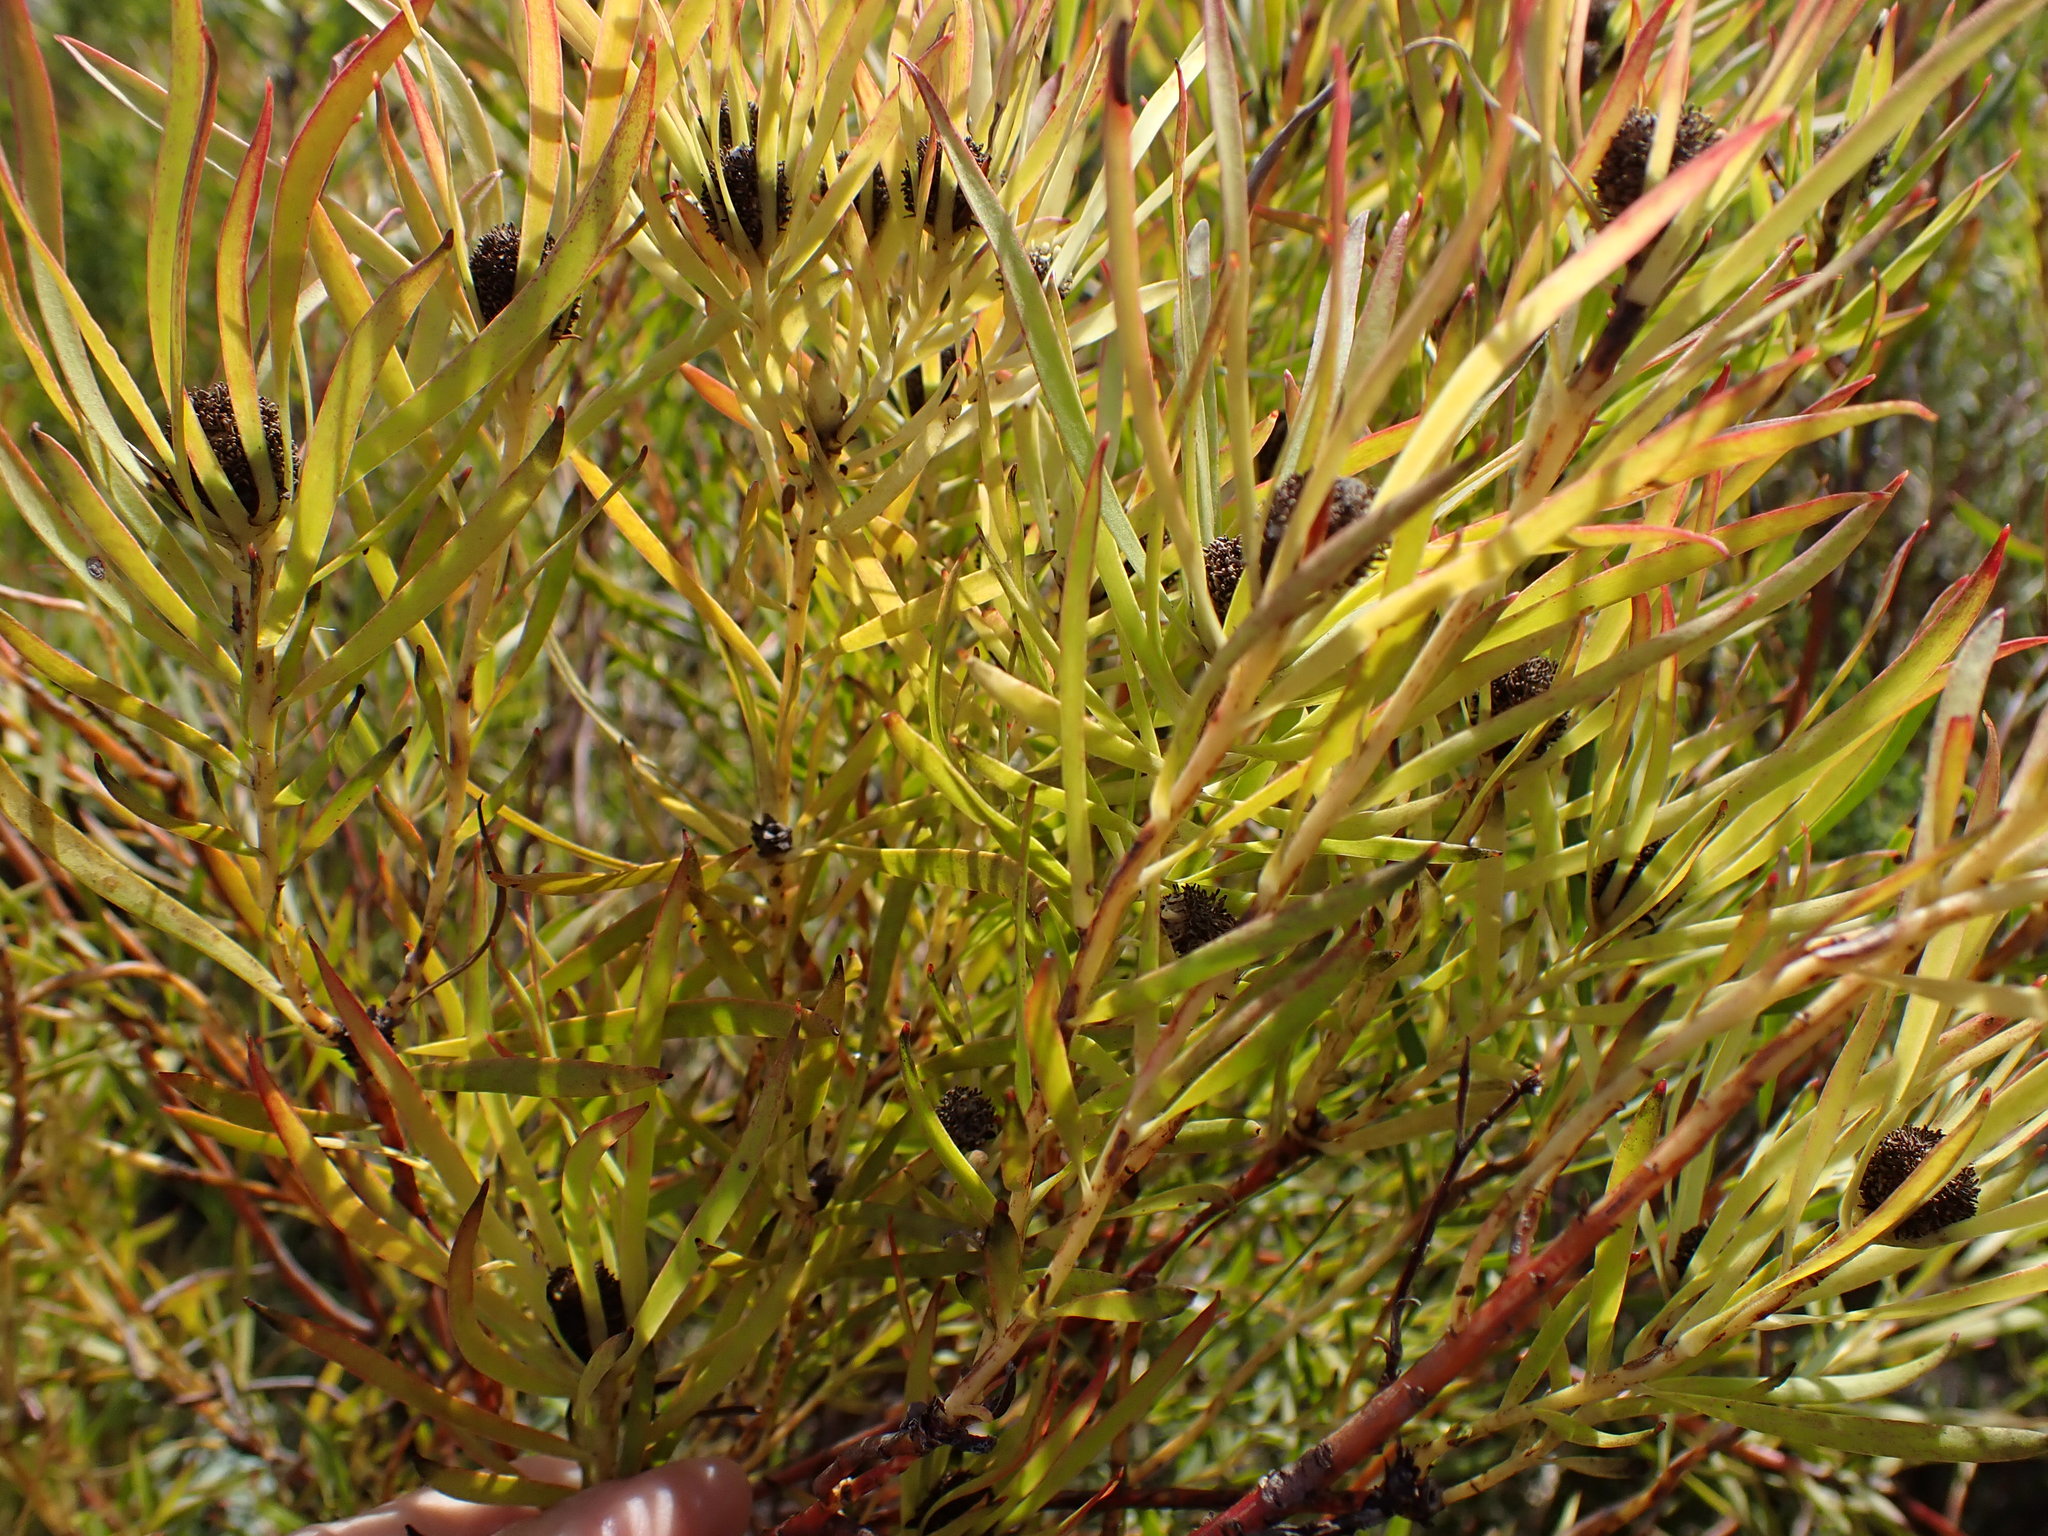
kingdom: Plantae
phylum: Tracheophyta
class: Magnoliopsida
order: Proteales
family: Proteaceae
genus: Leucadendron
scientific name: Leucadendron salignum
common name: Common sunshine conebush
